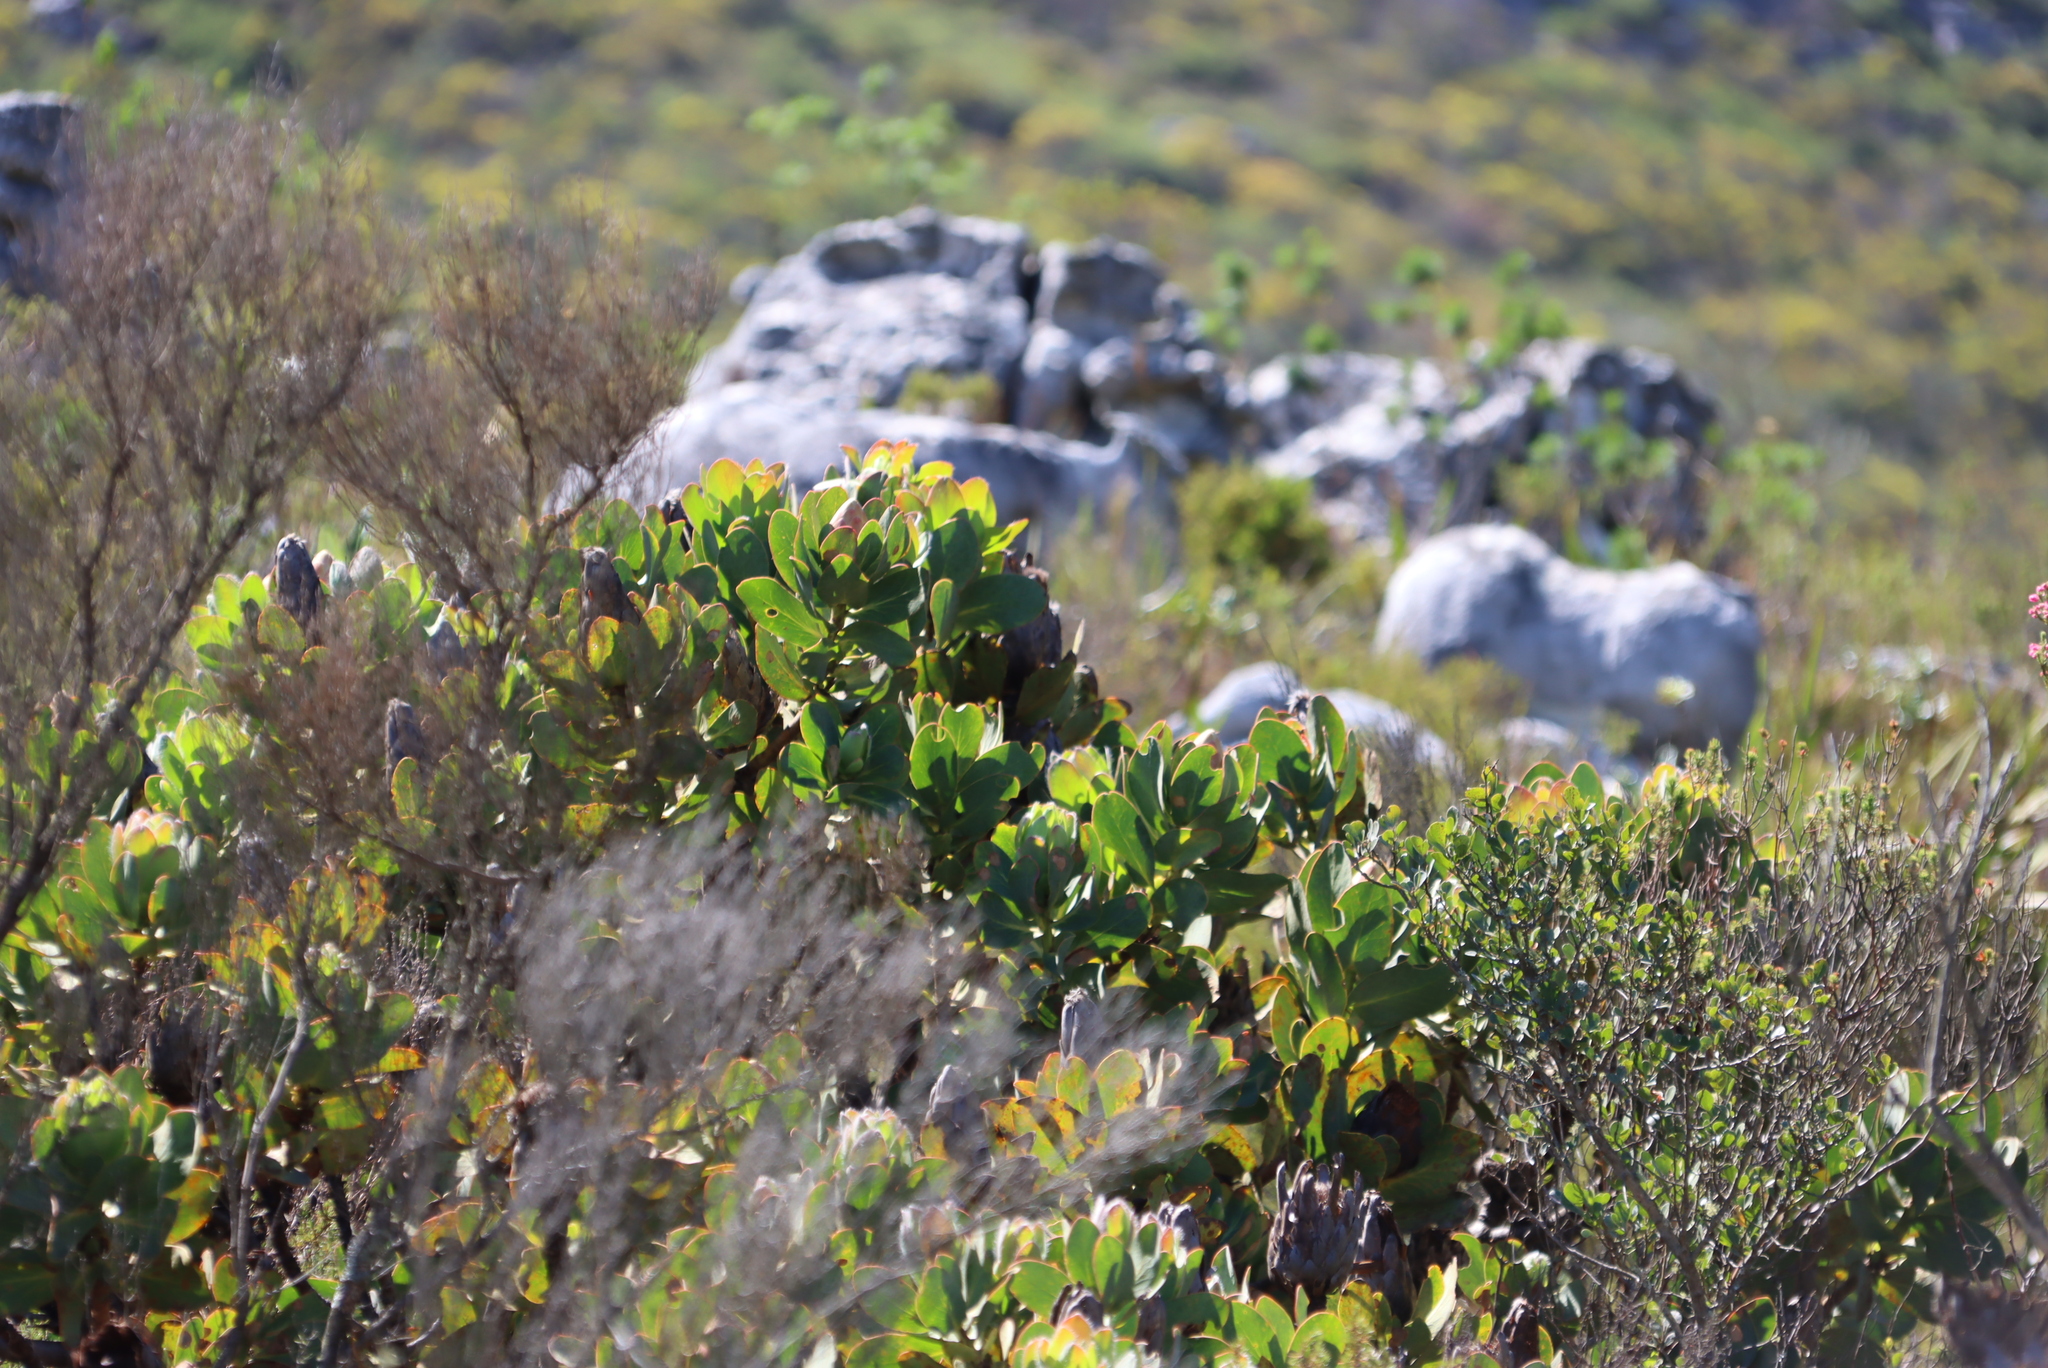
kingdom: Plantae
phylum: Tracheophyta
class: Magnoliopsida
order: Proteales
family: Proteaceae
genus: Protea
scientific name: Protea grandiceps
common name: Red sugarbush
